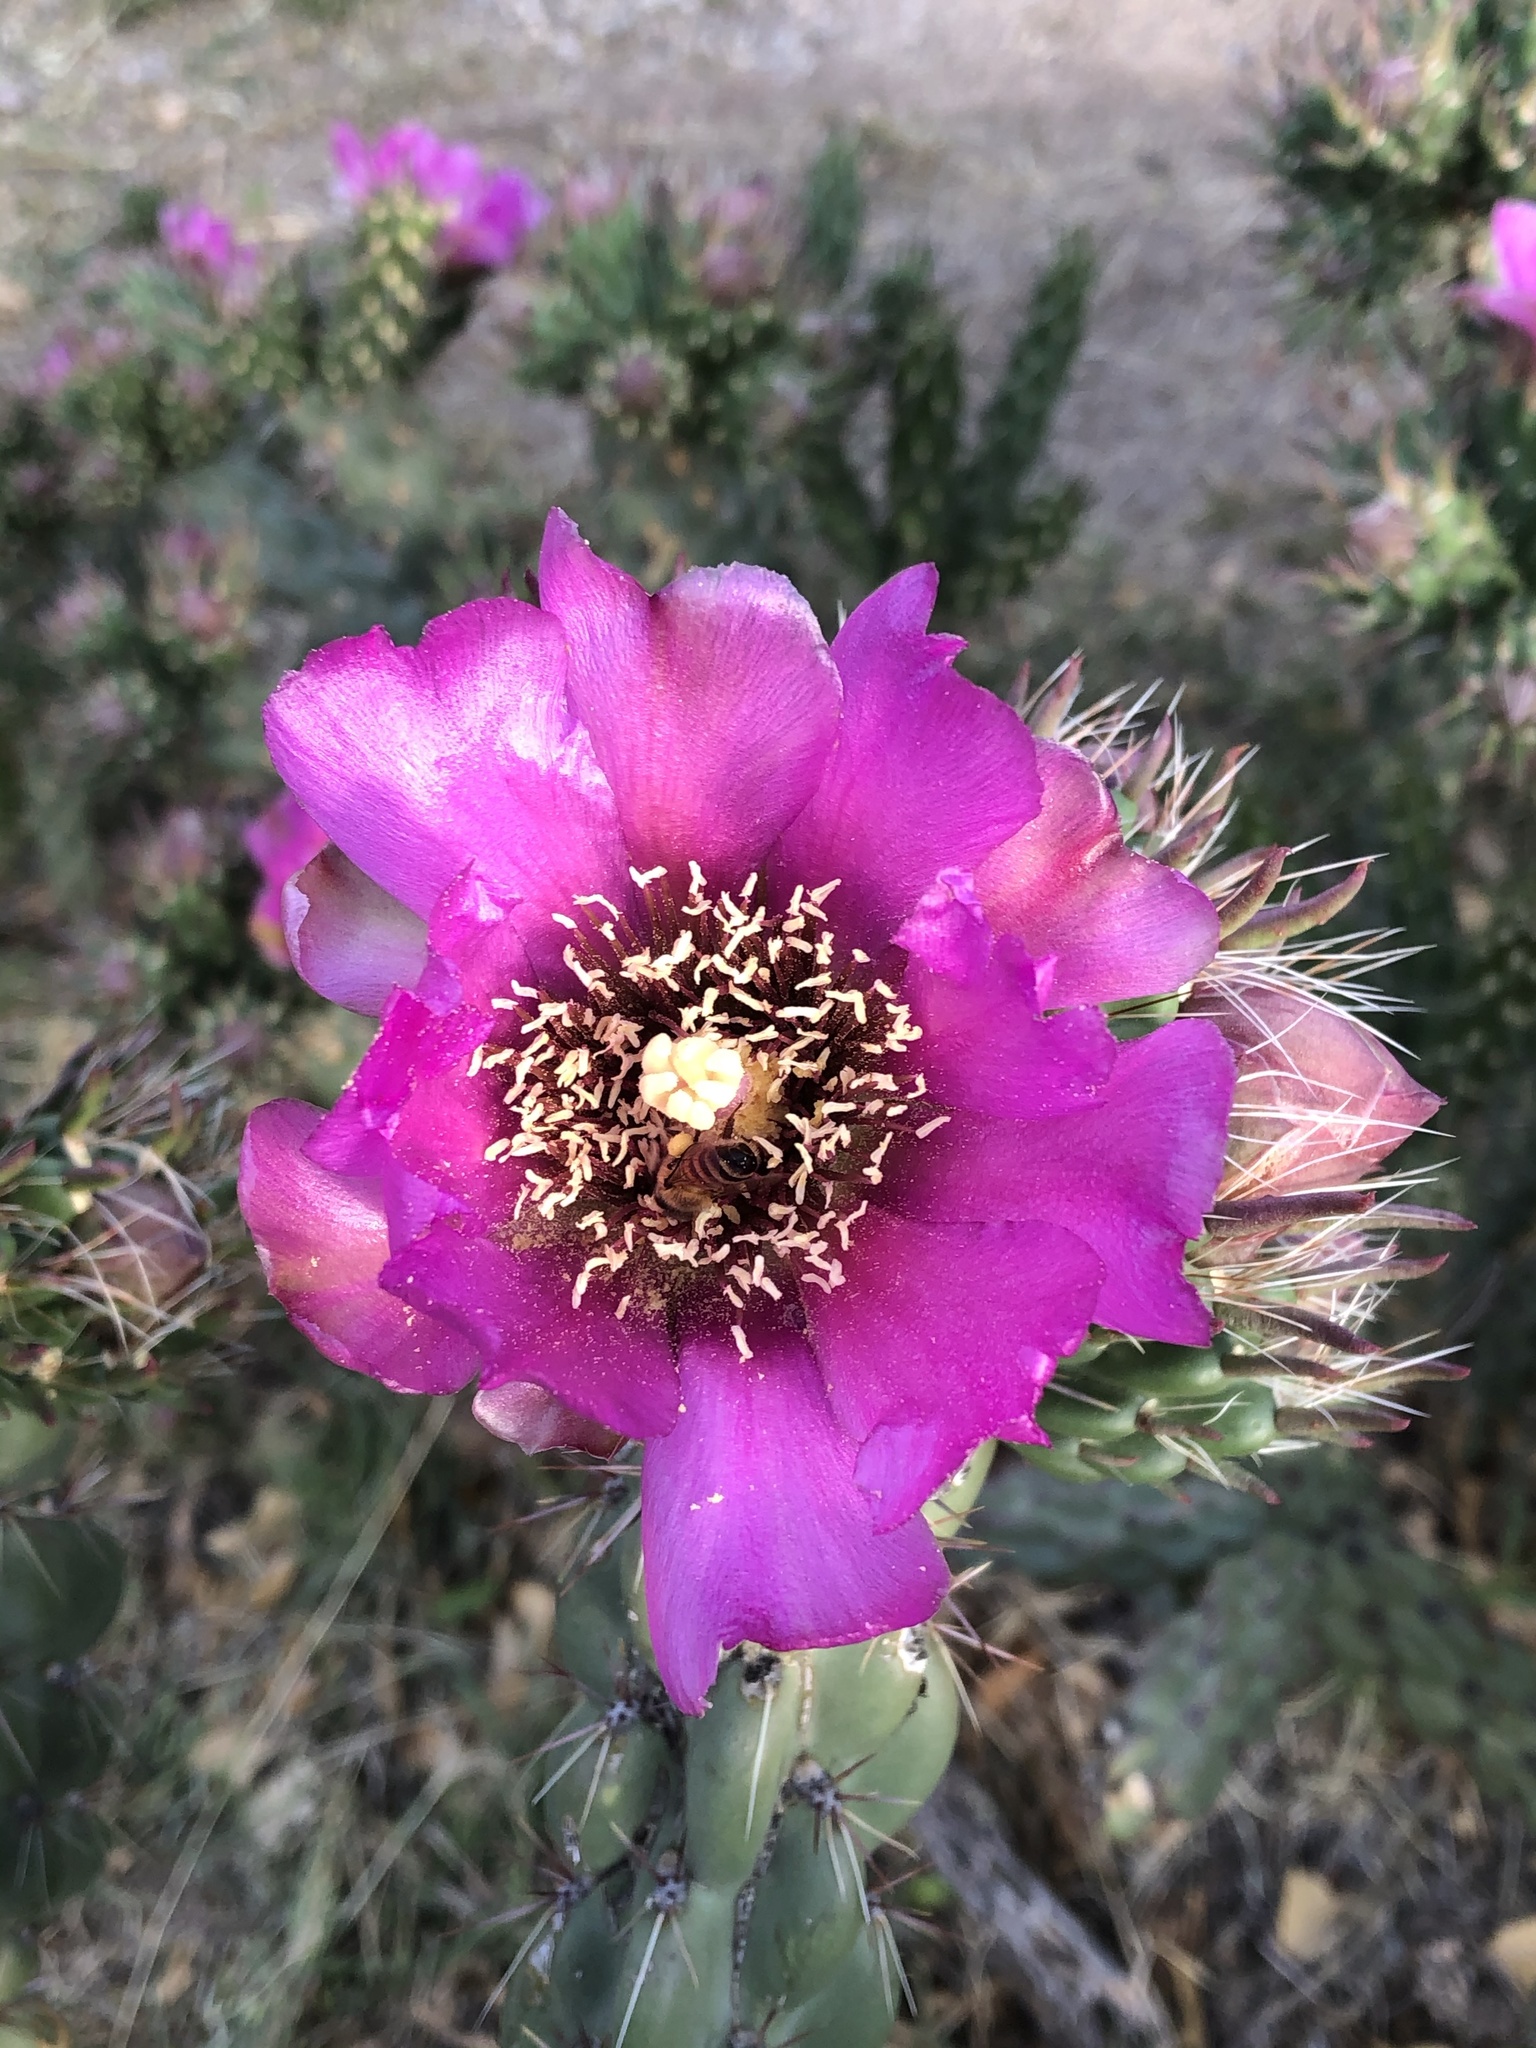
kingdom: Plantae
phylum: Tracheophyta
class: Magnoliopsida
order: Caryophyllales
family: Cactaceae
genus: Cylindropuntia
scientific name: Cylindropuntia imbricata
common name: Candelabrum cactus
